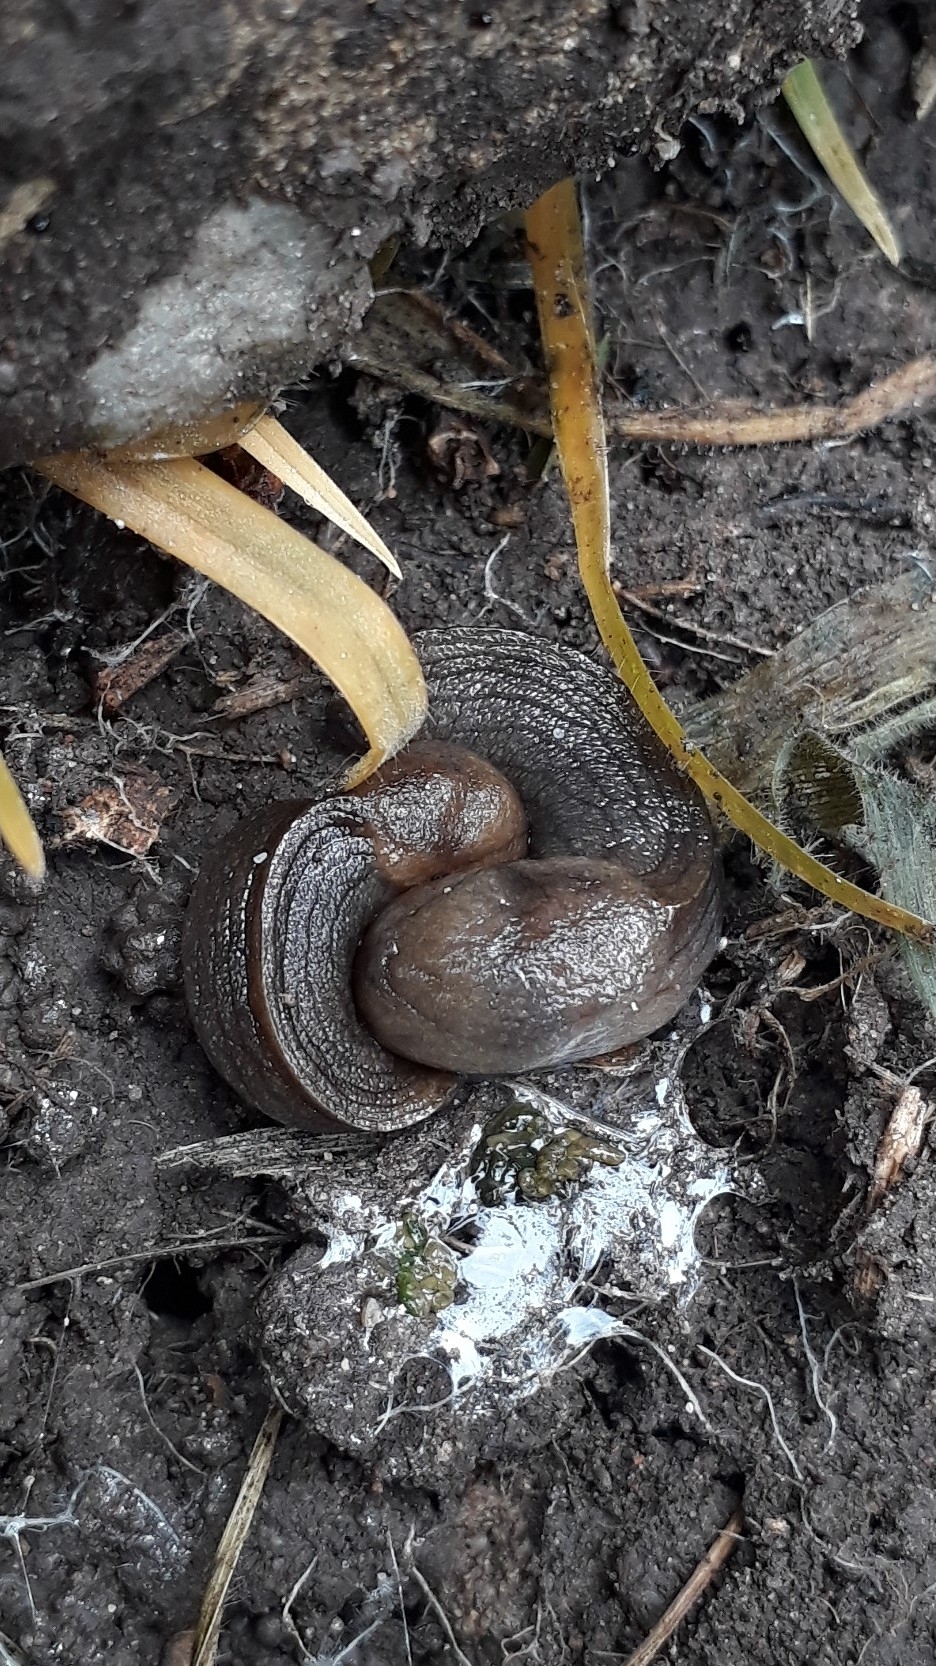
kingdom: Animalia
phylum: Mollusca
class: Gastropoda
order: Stylommatophora
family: Milacidae
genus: Milax
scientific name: Milax gagates
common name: Greenhouse slug
